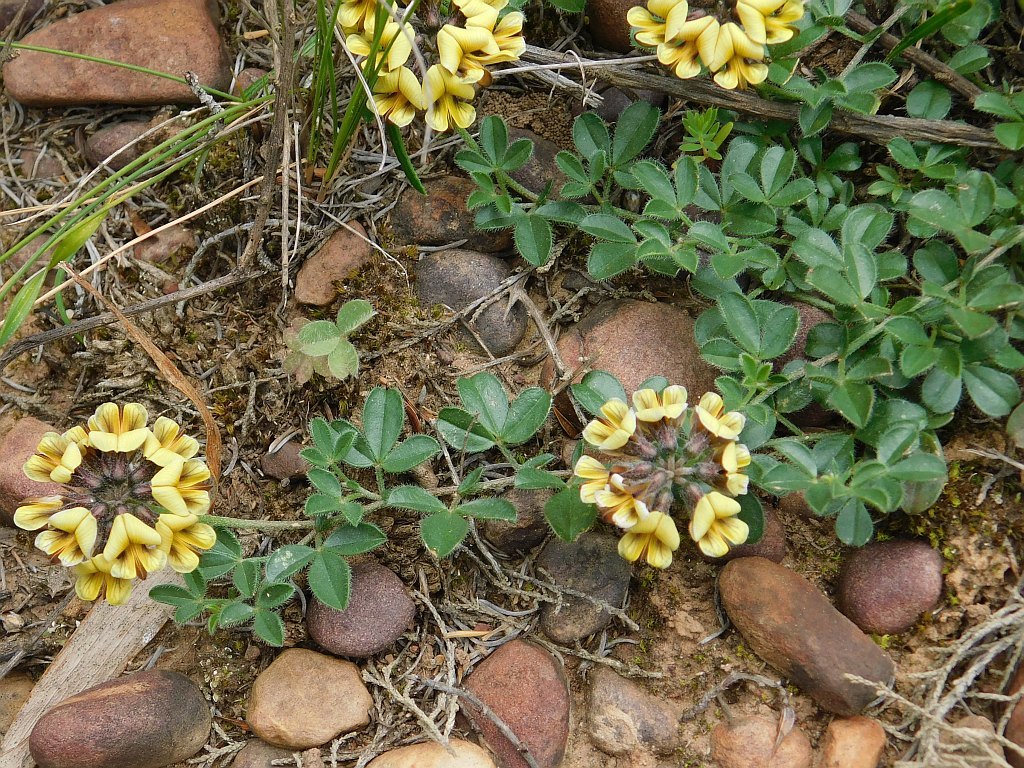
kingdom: Plantae
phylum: Tracheophyta
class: Magnoliopsida
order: Fabales
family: Fabaceae
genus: Lotononis
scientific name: Lotononis umbellata
